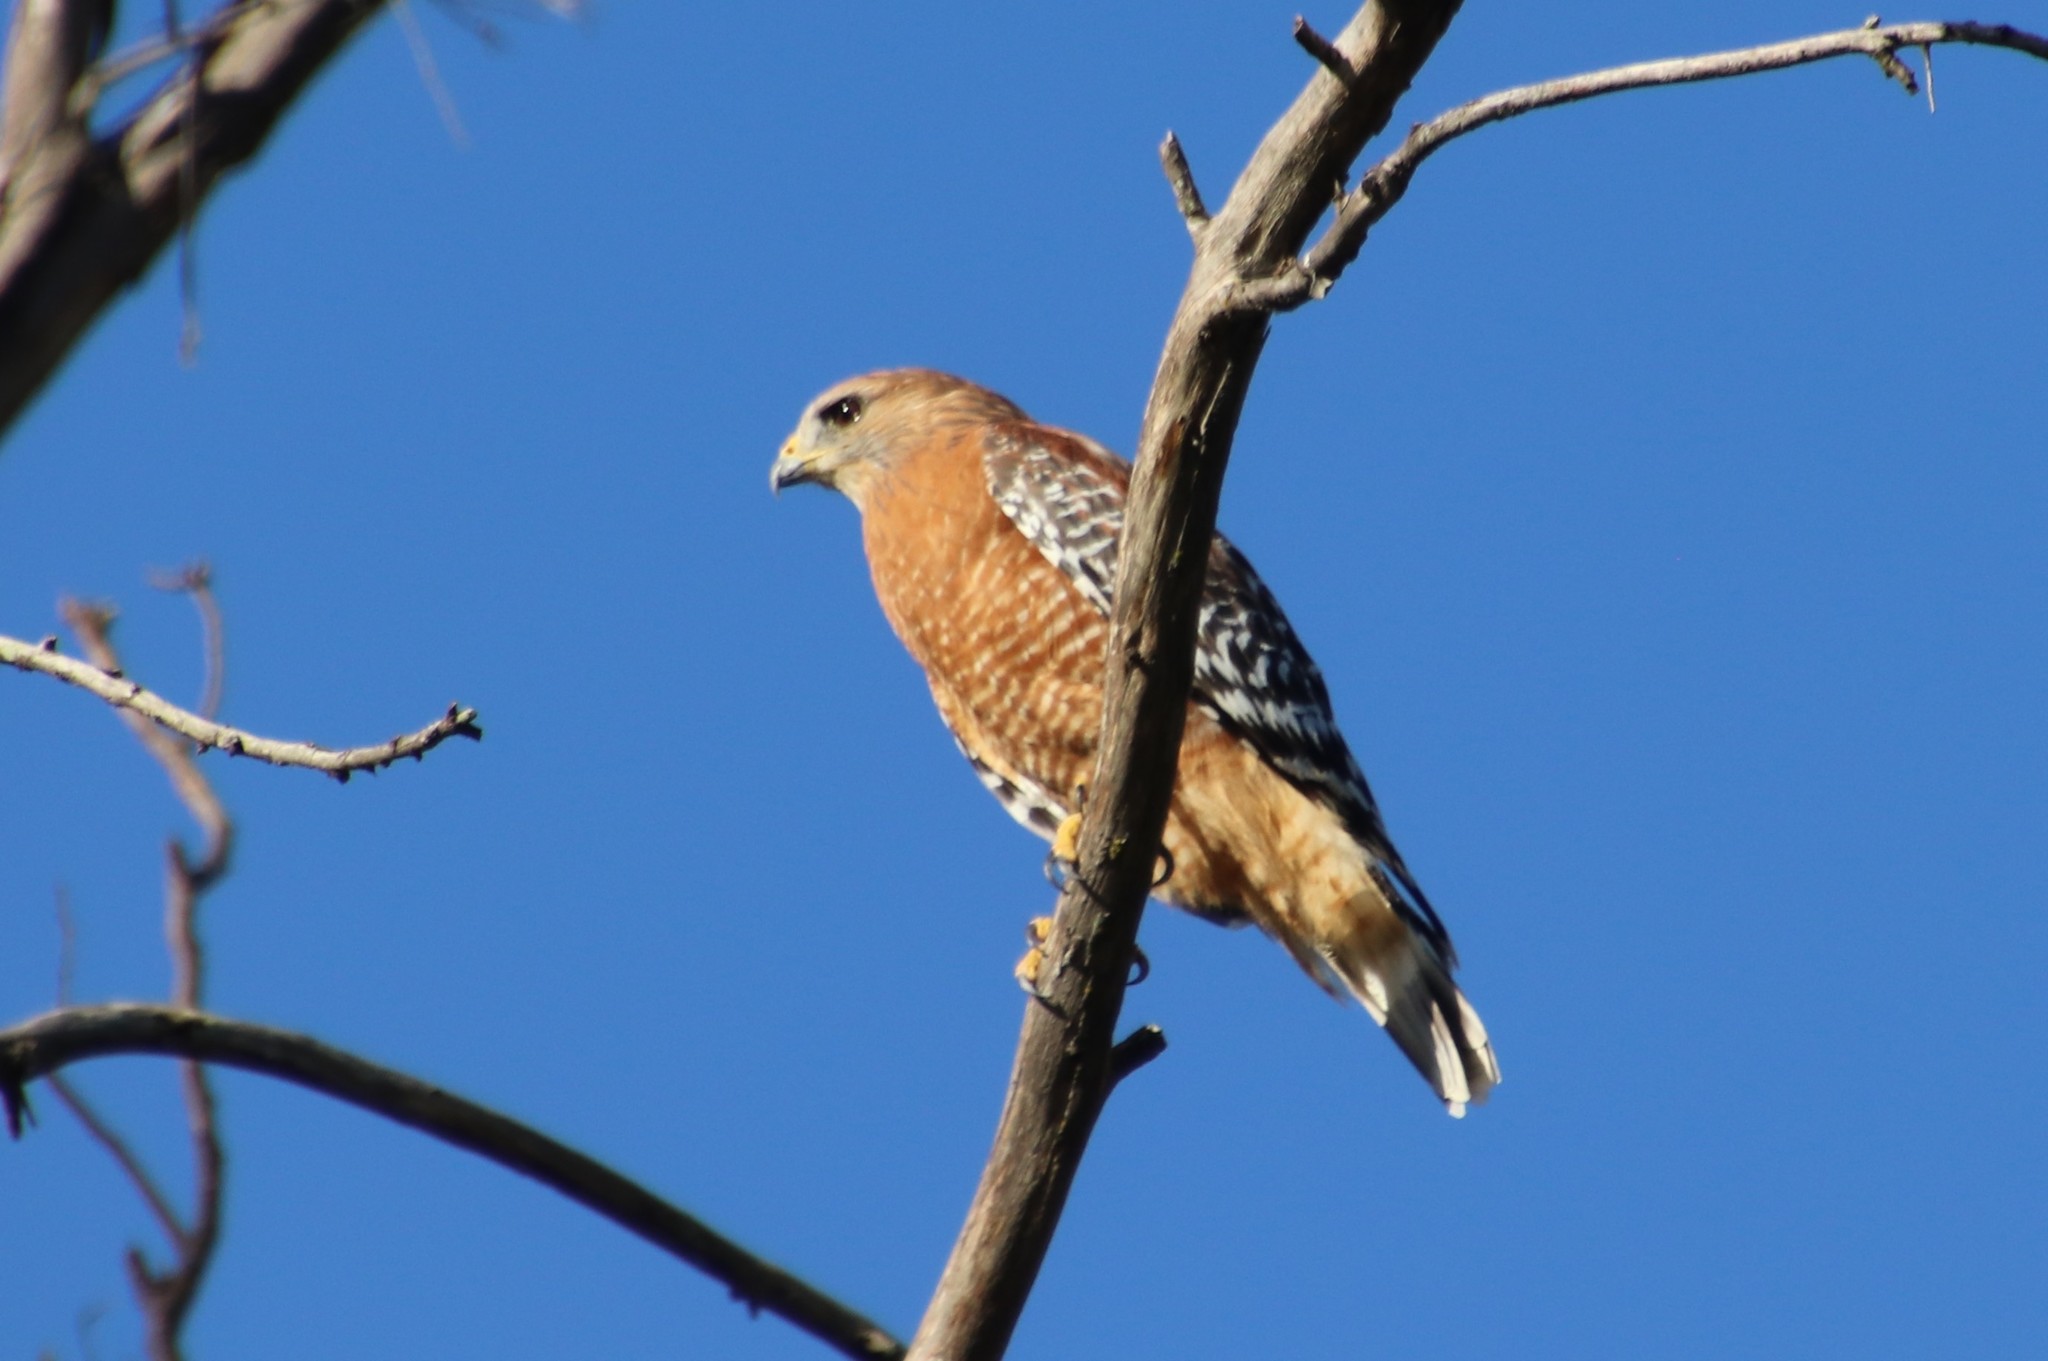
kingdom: Animalia
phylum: Chordata
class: Aves
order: Accipitriformes
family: Accipitridae
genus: Buteo
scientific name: Buteo lineatus
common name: Red-shouldered hawk
